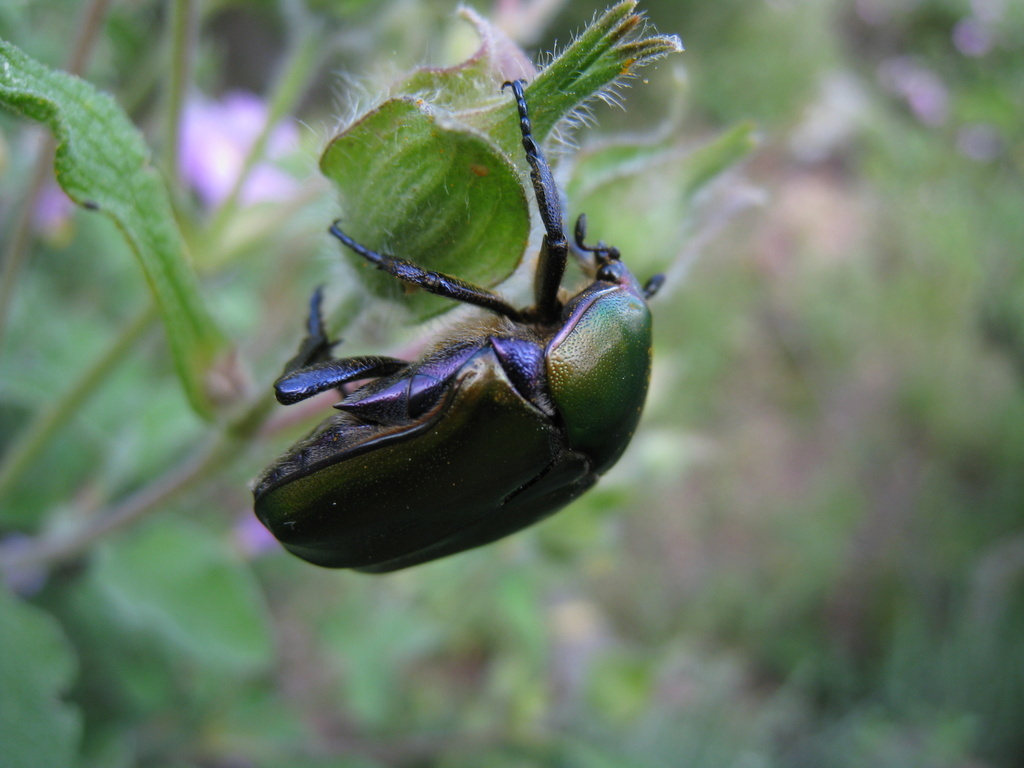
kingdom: Animalia
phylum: Arthropoda
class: Insecta
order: Coleoptera
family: Scarabaeidae
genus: Protaetia
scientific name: Protaetia cuprea
